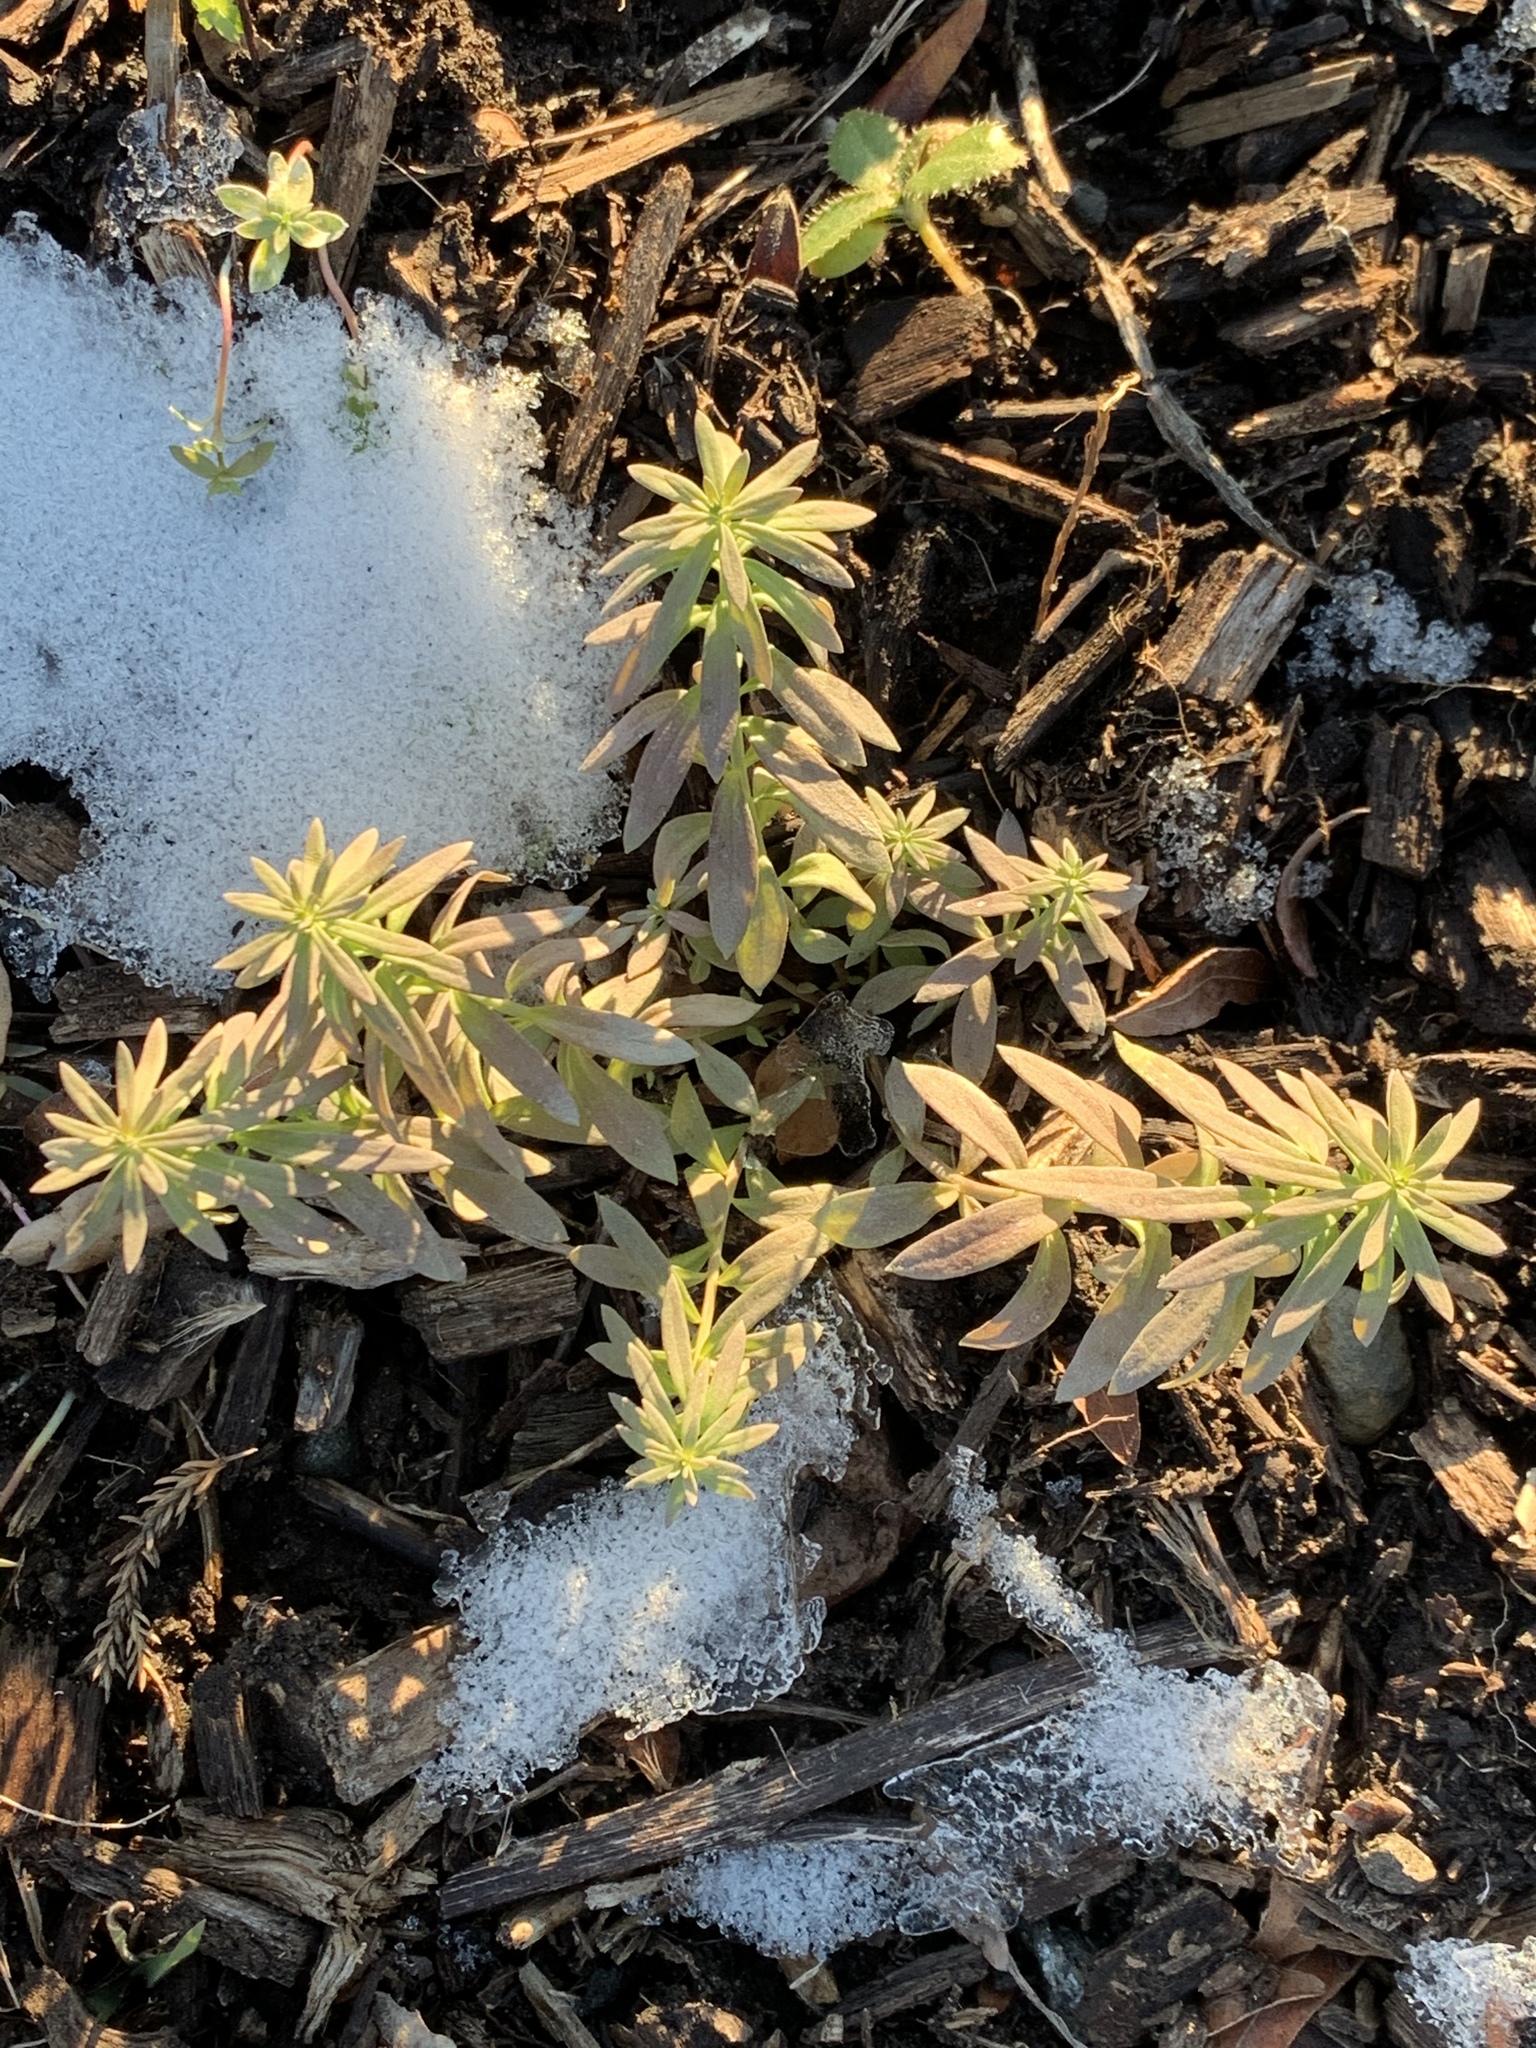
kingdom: Plantae
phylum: Tracheophyta
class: Magnoliopsida
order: Lamiales
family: Plantaginaceae
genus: Linaria
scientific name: Linaria vulgaris
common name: Butter and eggs
